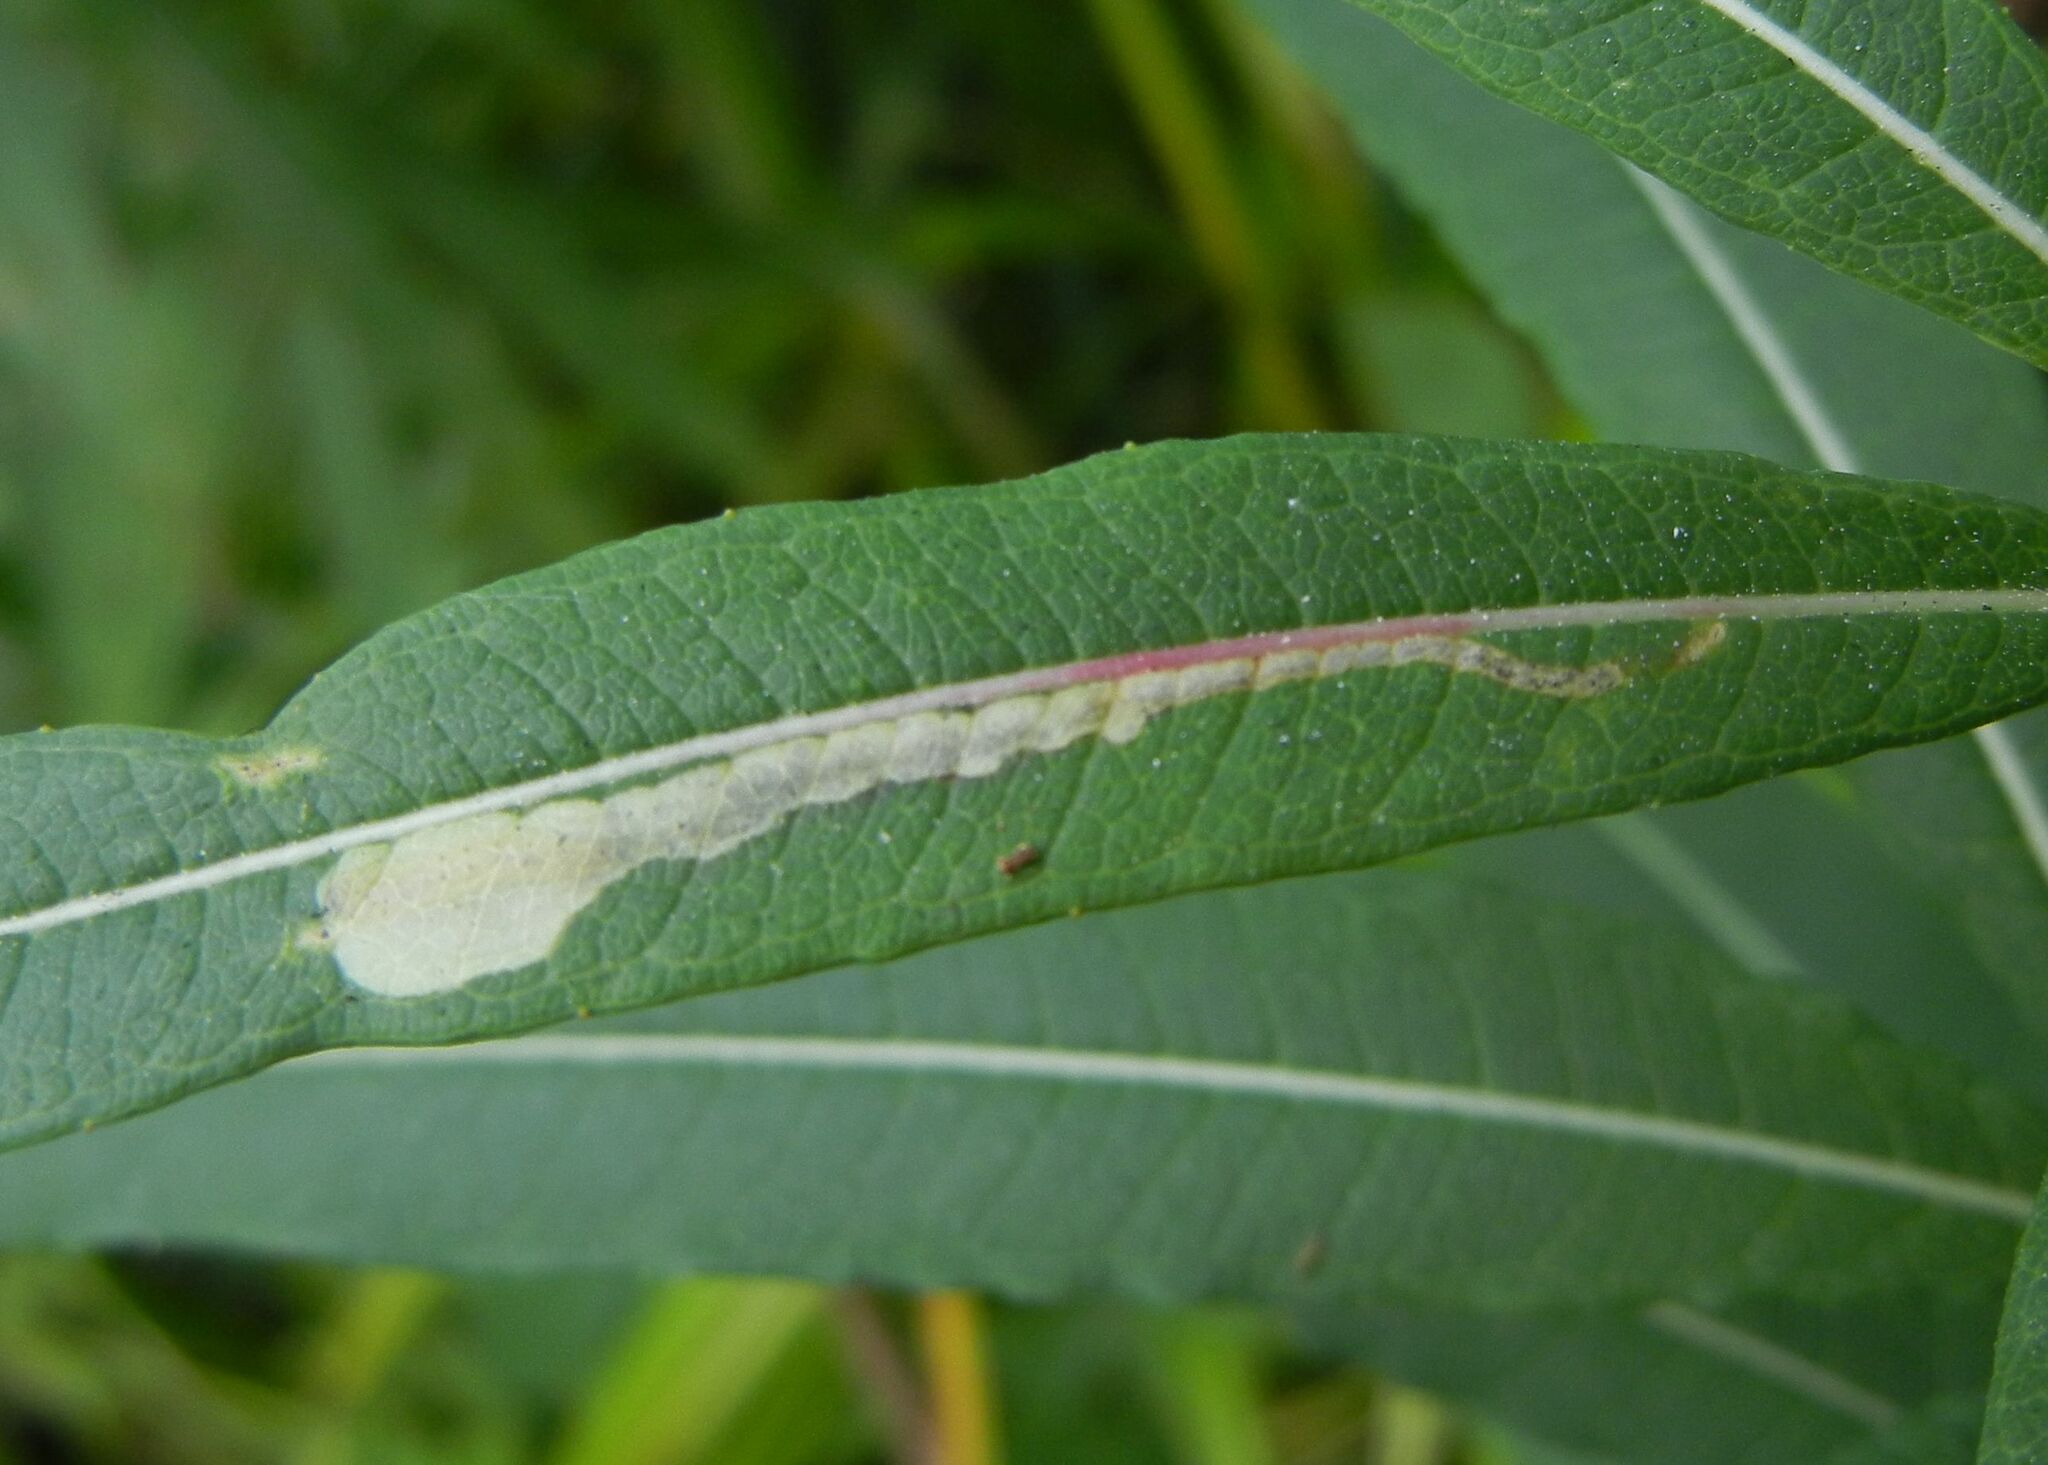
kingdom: Animalia
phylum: Arthropoda
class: Insecta
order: Lepidoptera
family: Momphidae
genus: Mompha
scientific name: Mompha raschkiella
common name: Little cosmet
